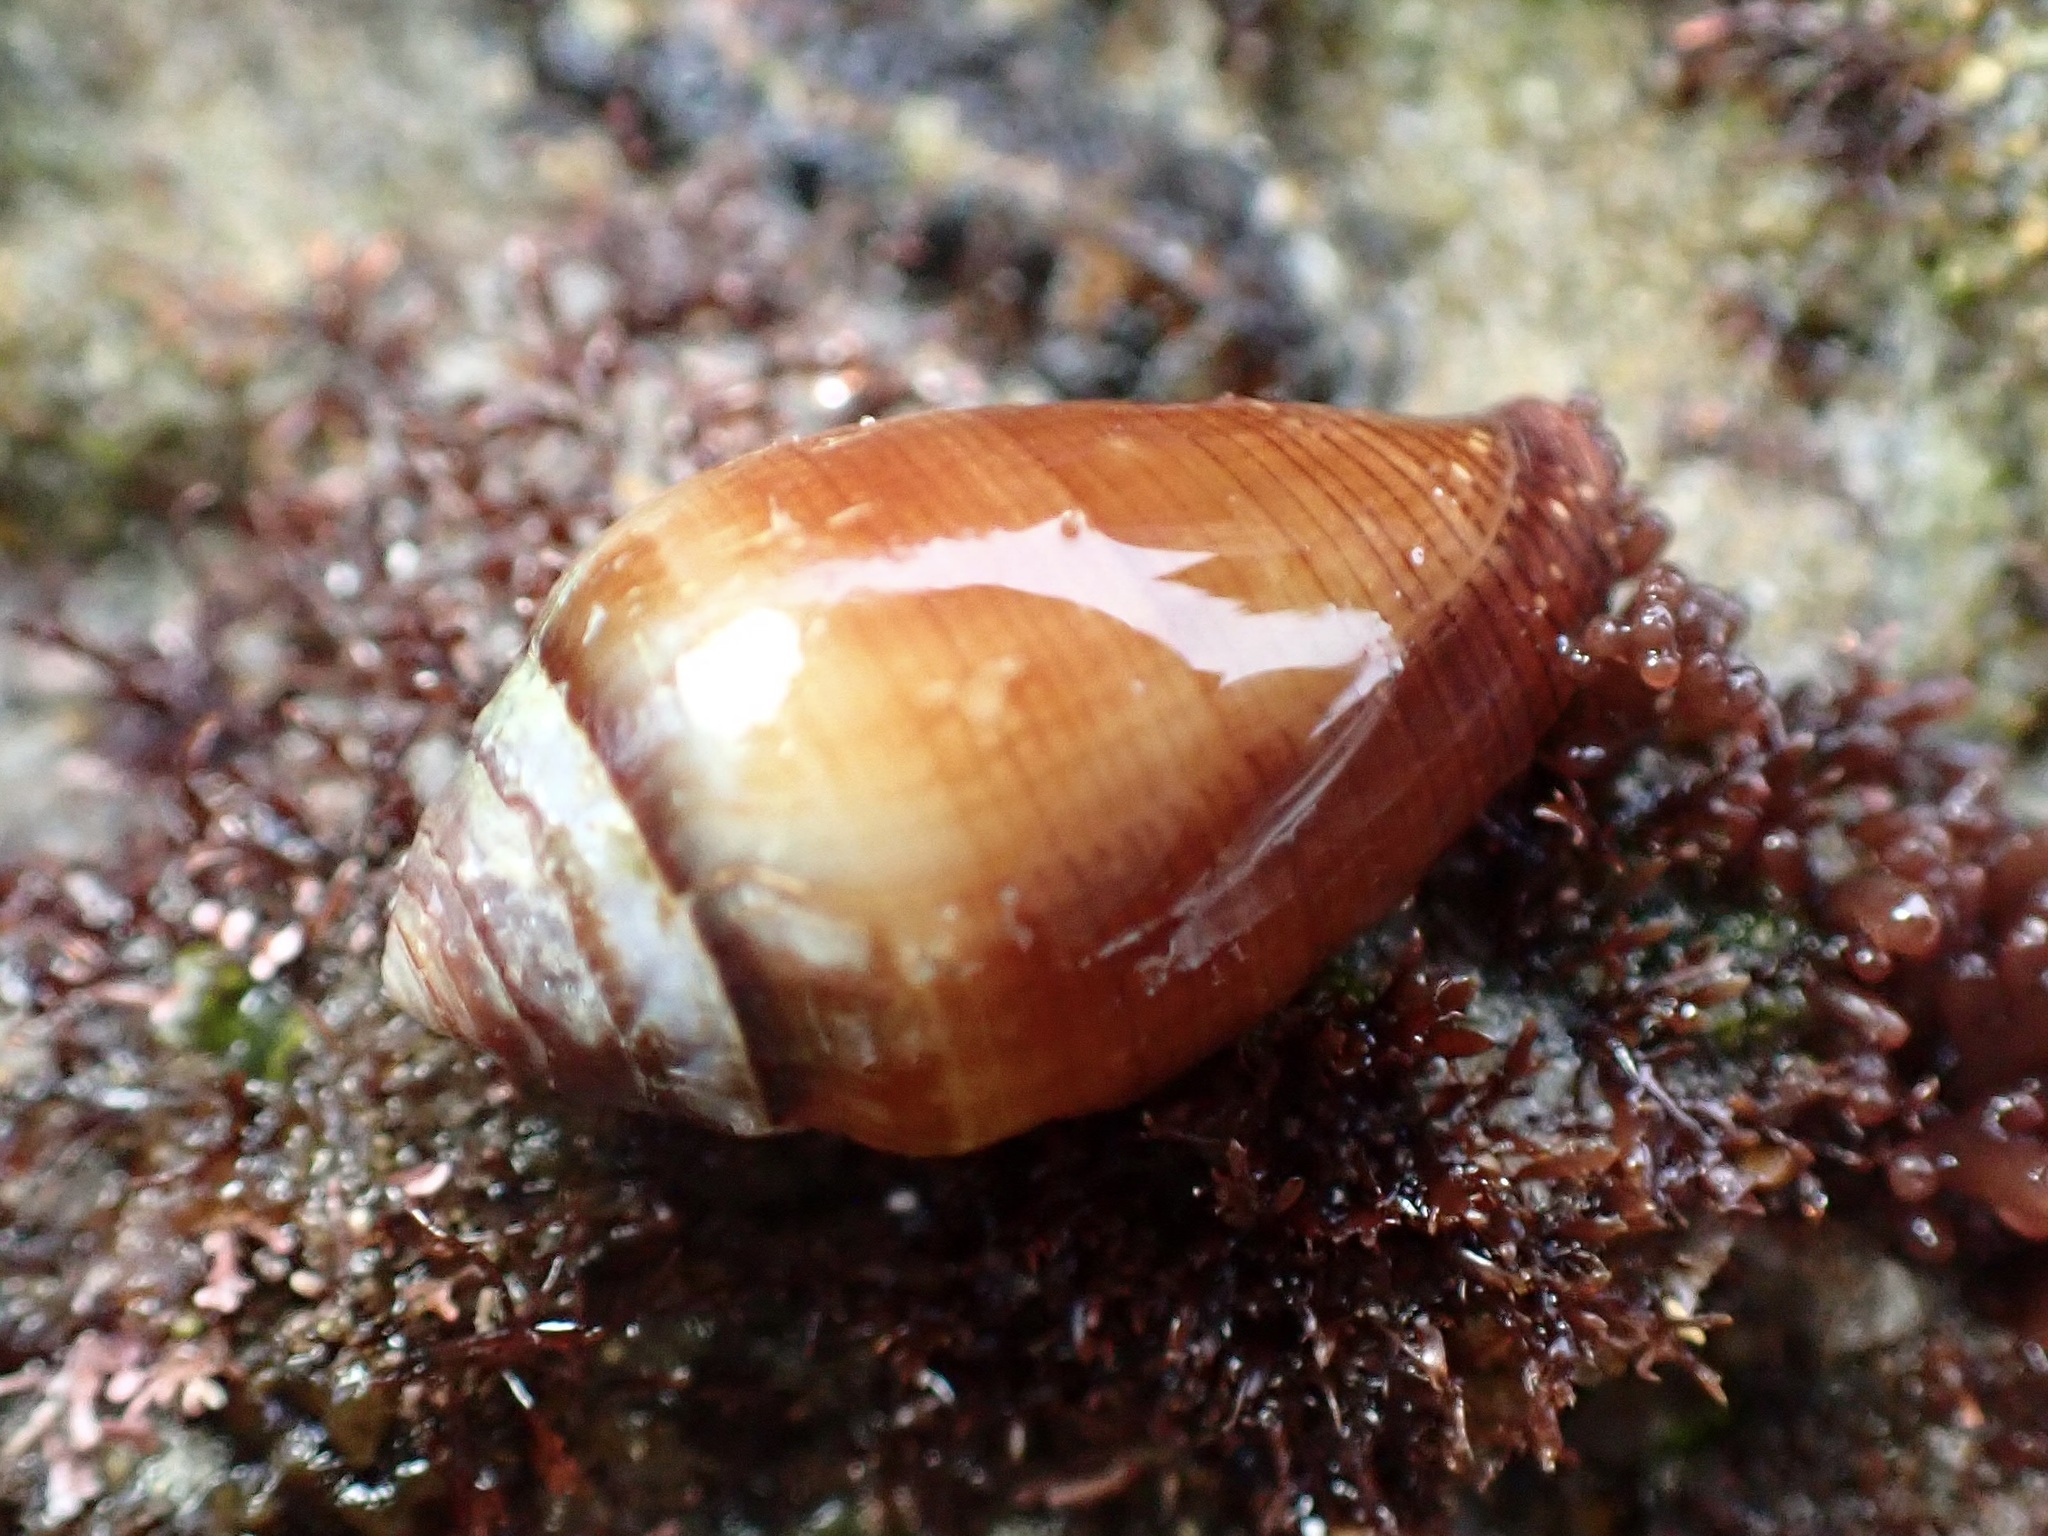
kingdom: Animalia
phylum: Mollusca
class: Gastropoda
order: Neogastropoda
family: Conidae
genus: Californiconus
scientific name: Californiconus californicus
